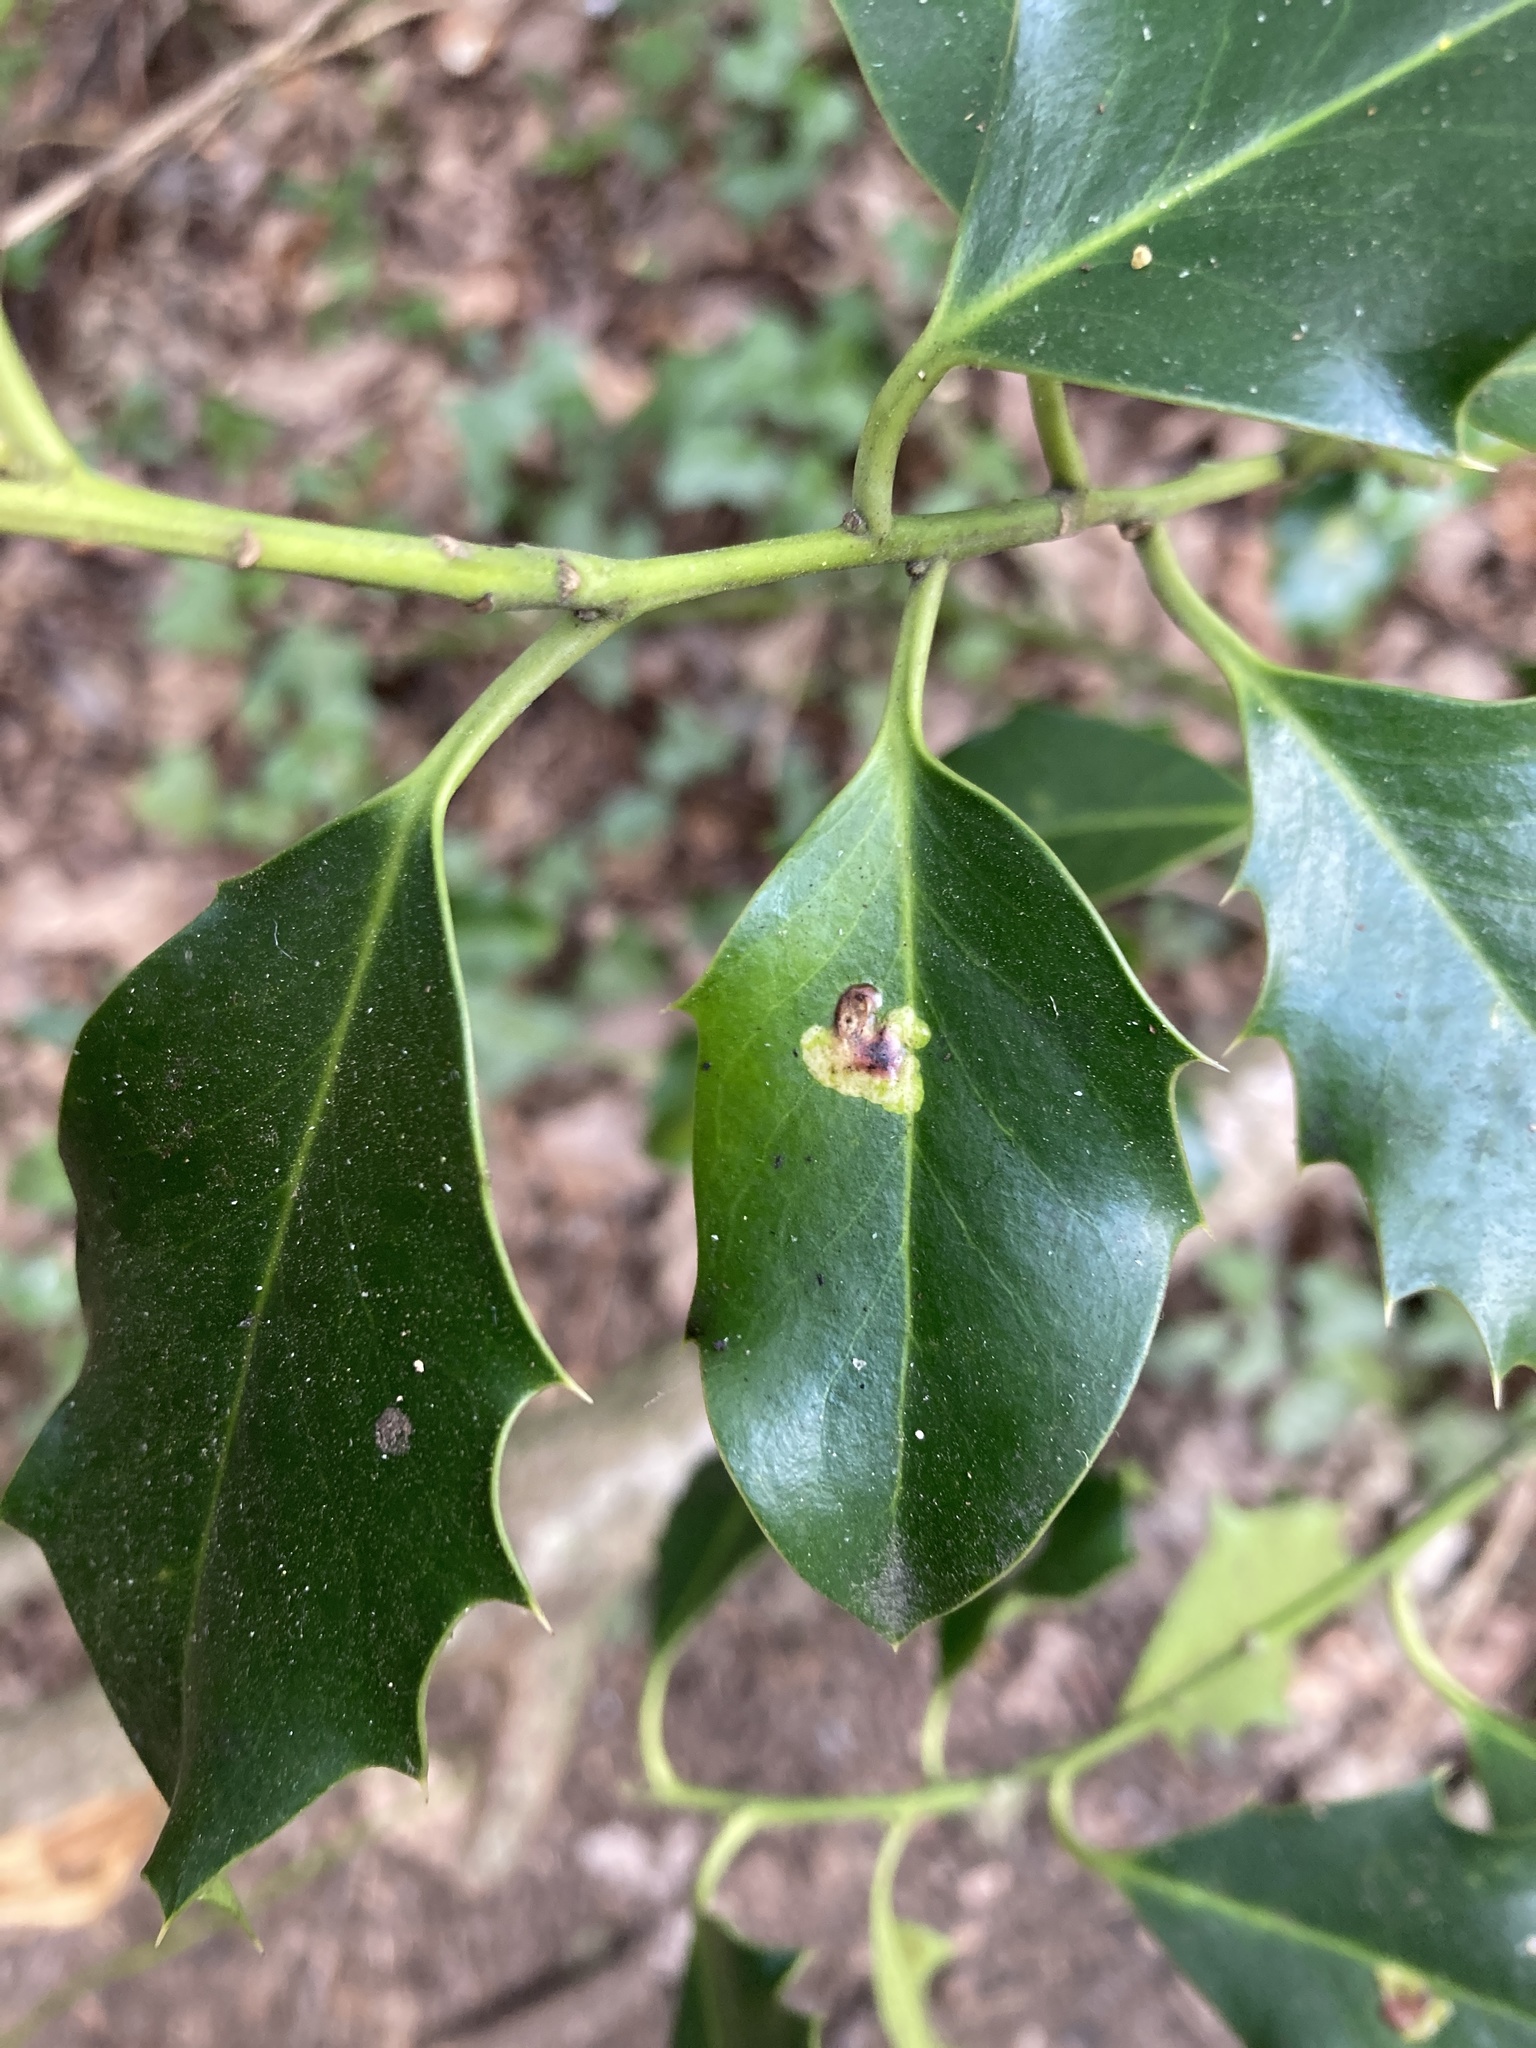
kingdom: Animalia
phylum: Arthropoda
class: Insecta
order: Diptera
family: Agromyzidae
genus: Phytomyza
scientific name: Phytomyza ilicis
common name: Holly leafminer
